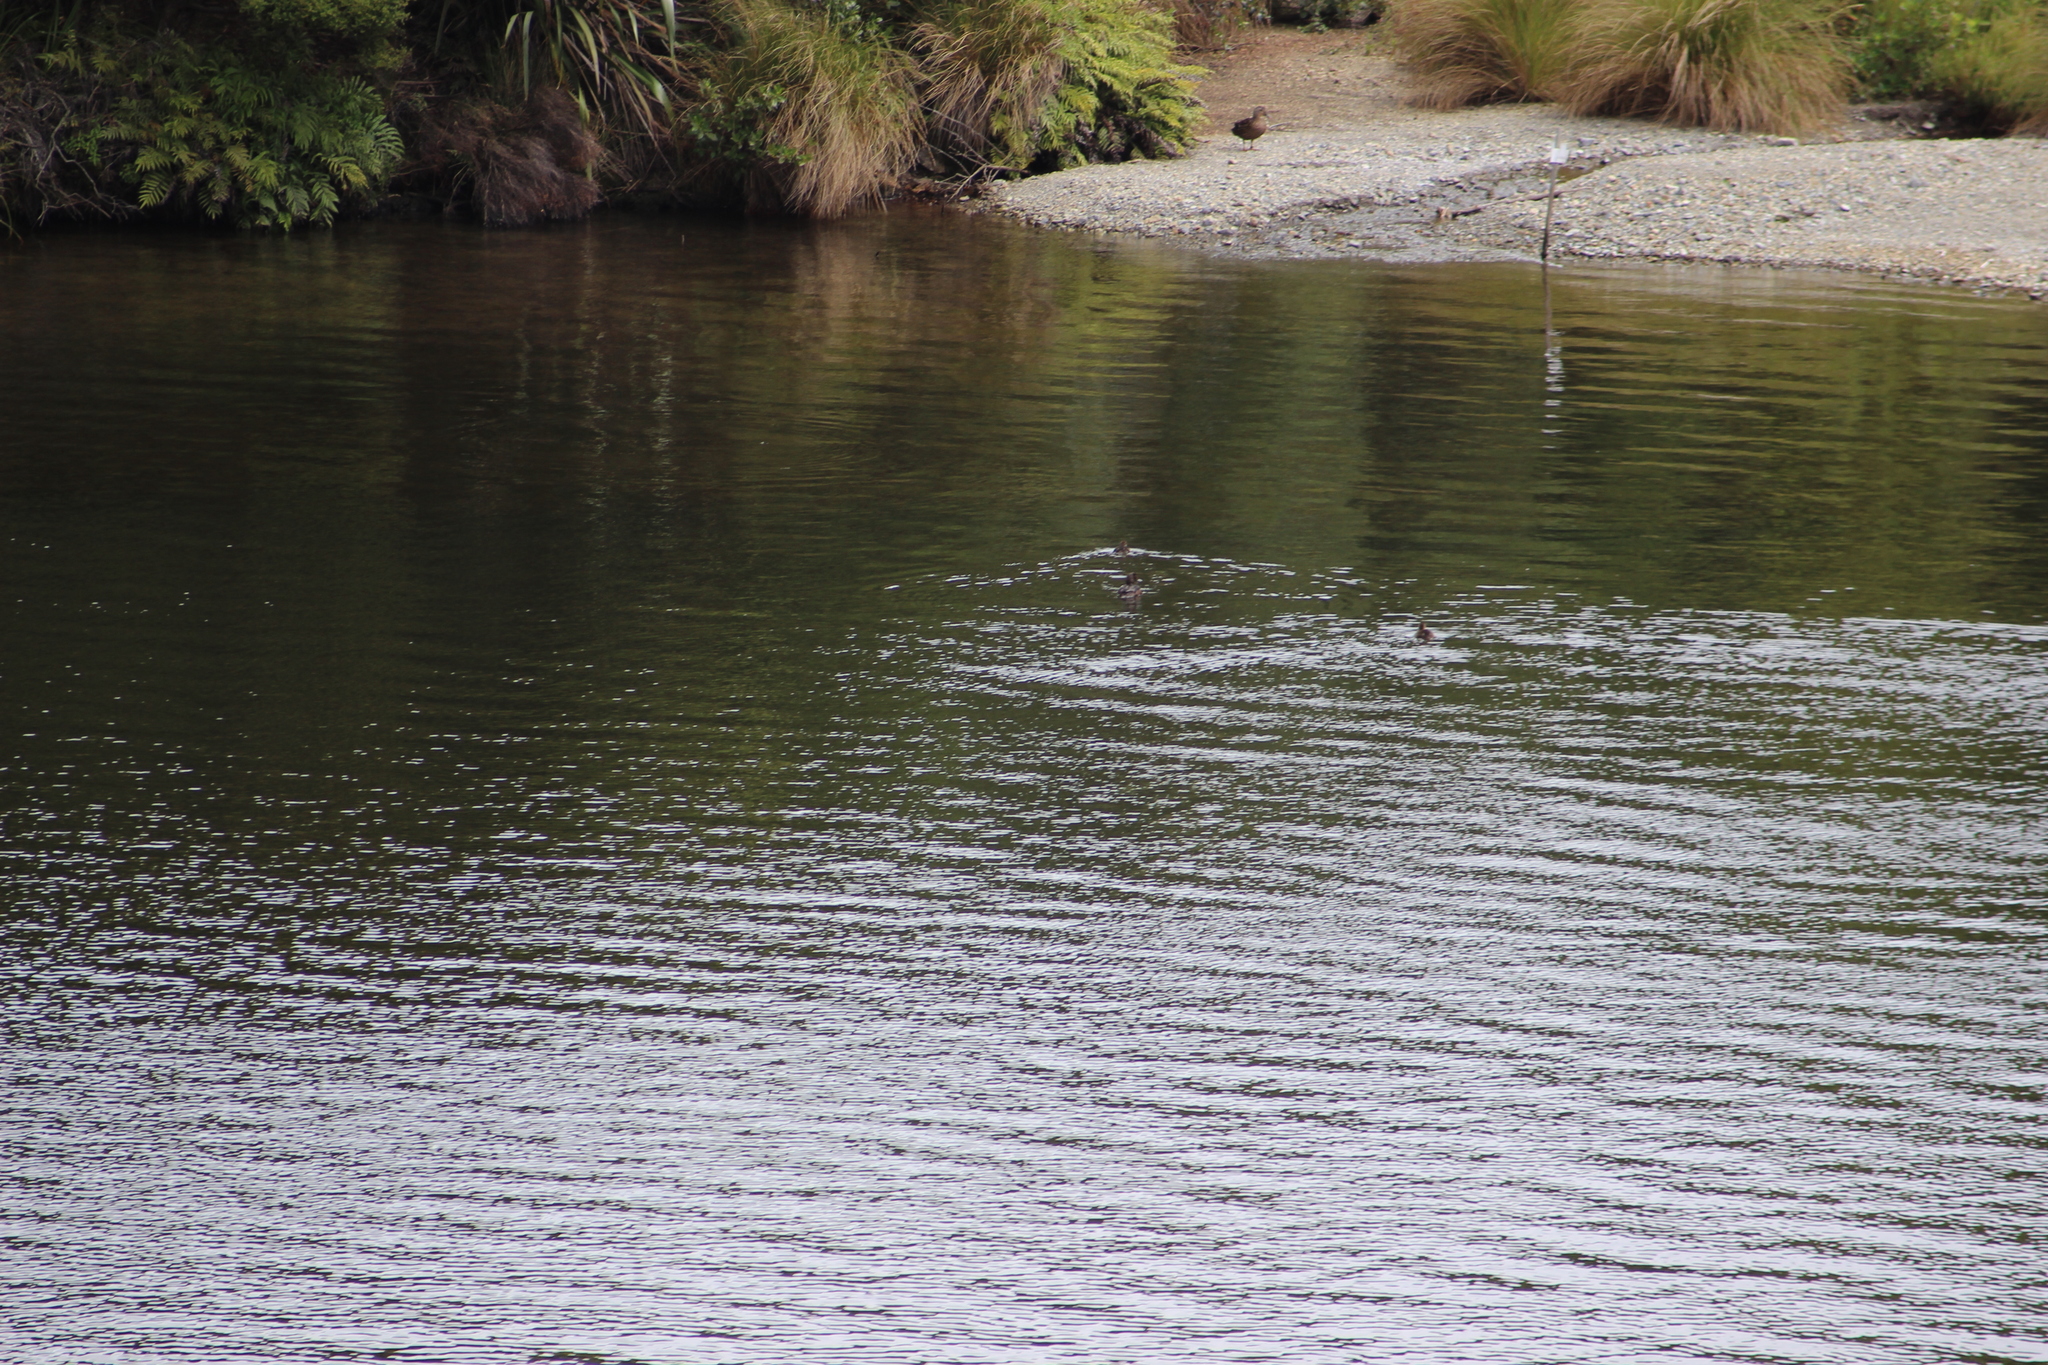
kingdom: Animalia
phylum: Chordata
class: Aves
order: Anseriformes
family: Anatidae
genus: Aythya
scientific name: Aythya novaeseelandiae
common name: New zealand scaup
